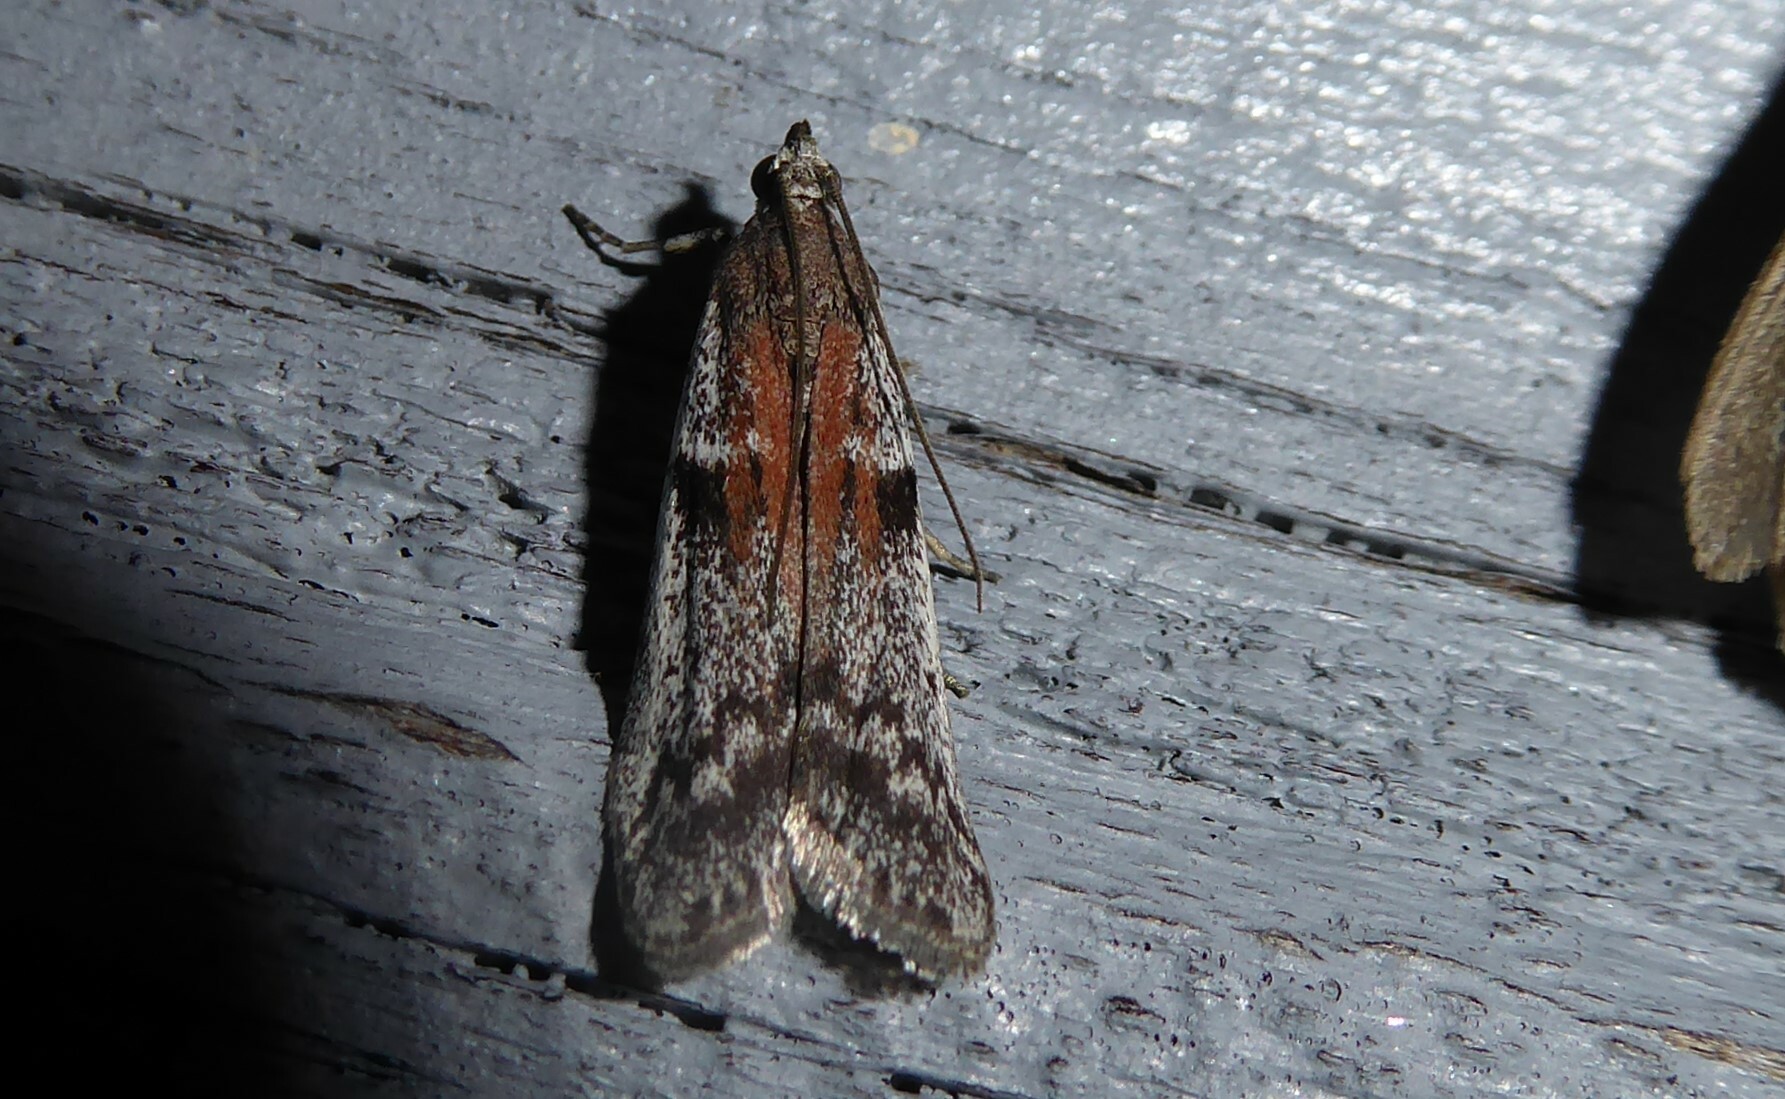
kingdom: Animalia
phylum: Arthropoda
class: Insecta
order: Lepidoptera
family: Pyralidae
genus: Patagoniodes
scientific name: Patagoniodes farinaria
